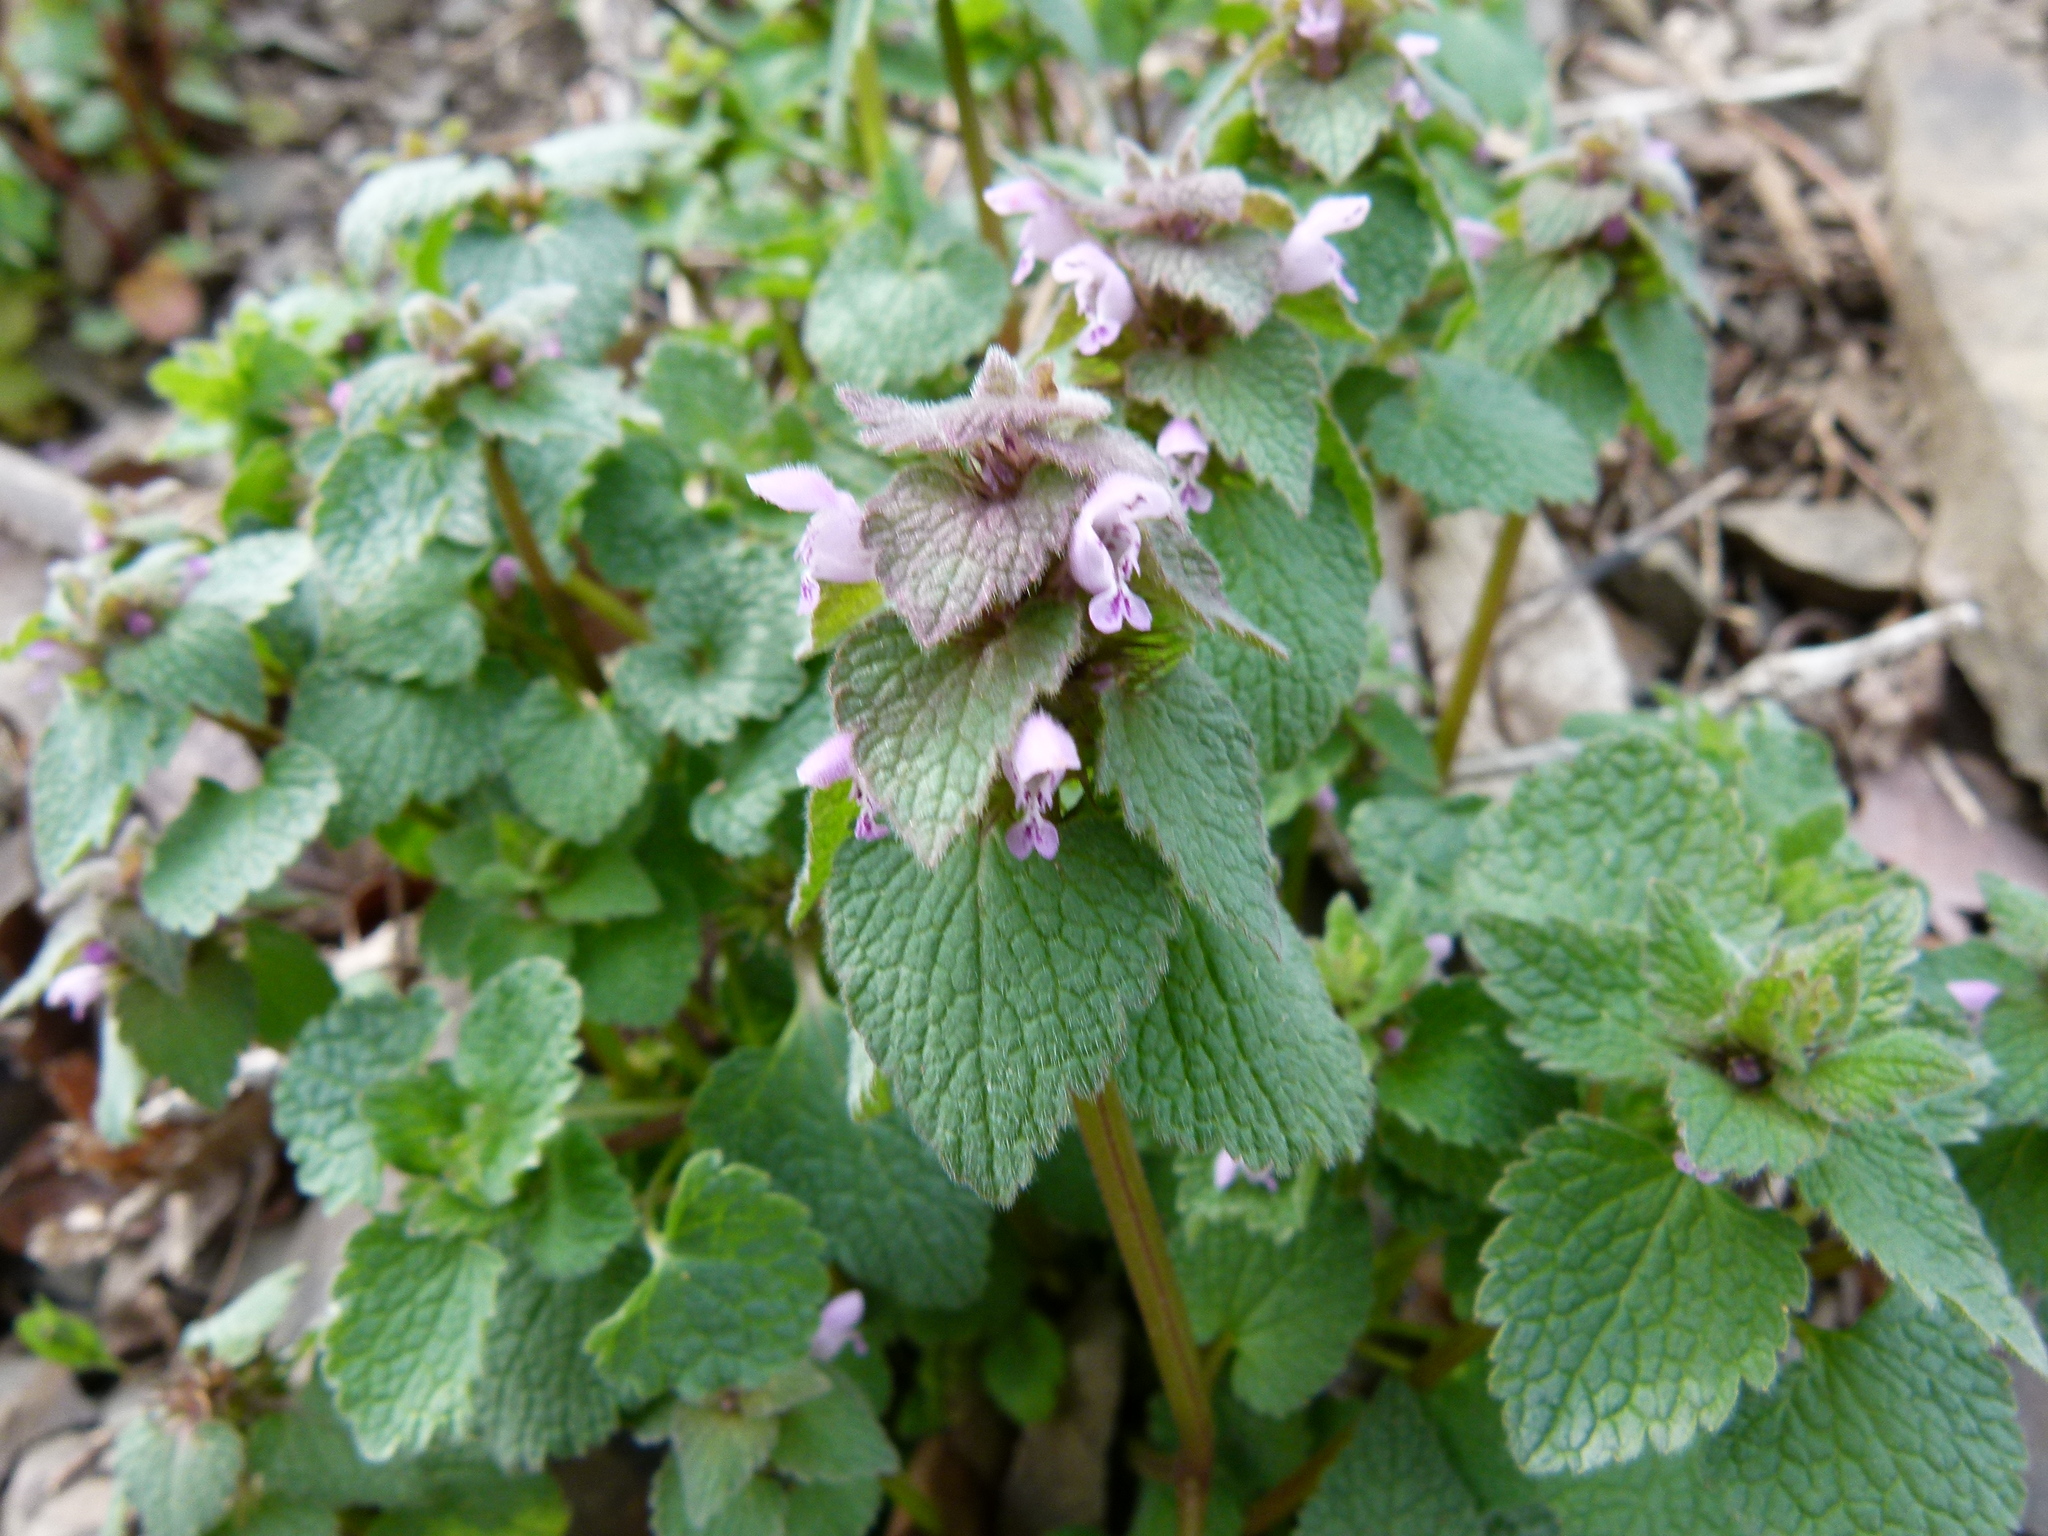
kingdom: Plantae
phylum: Tracheophyta
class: Magnoliopsida
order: Lamiales
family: Lamiaceae
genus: Lamium
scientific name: Lamium purpureum
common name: Red dead-nettle
